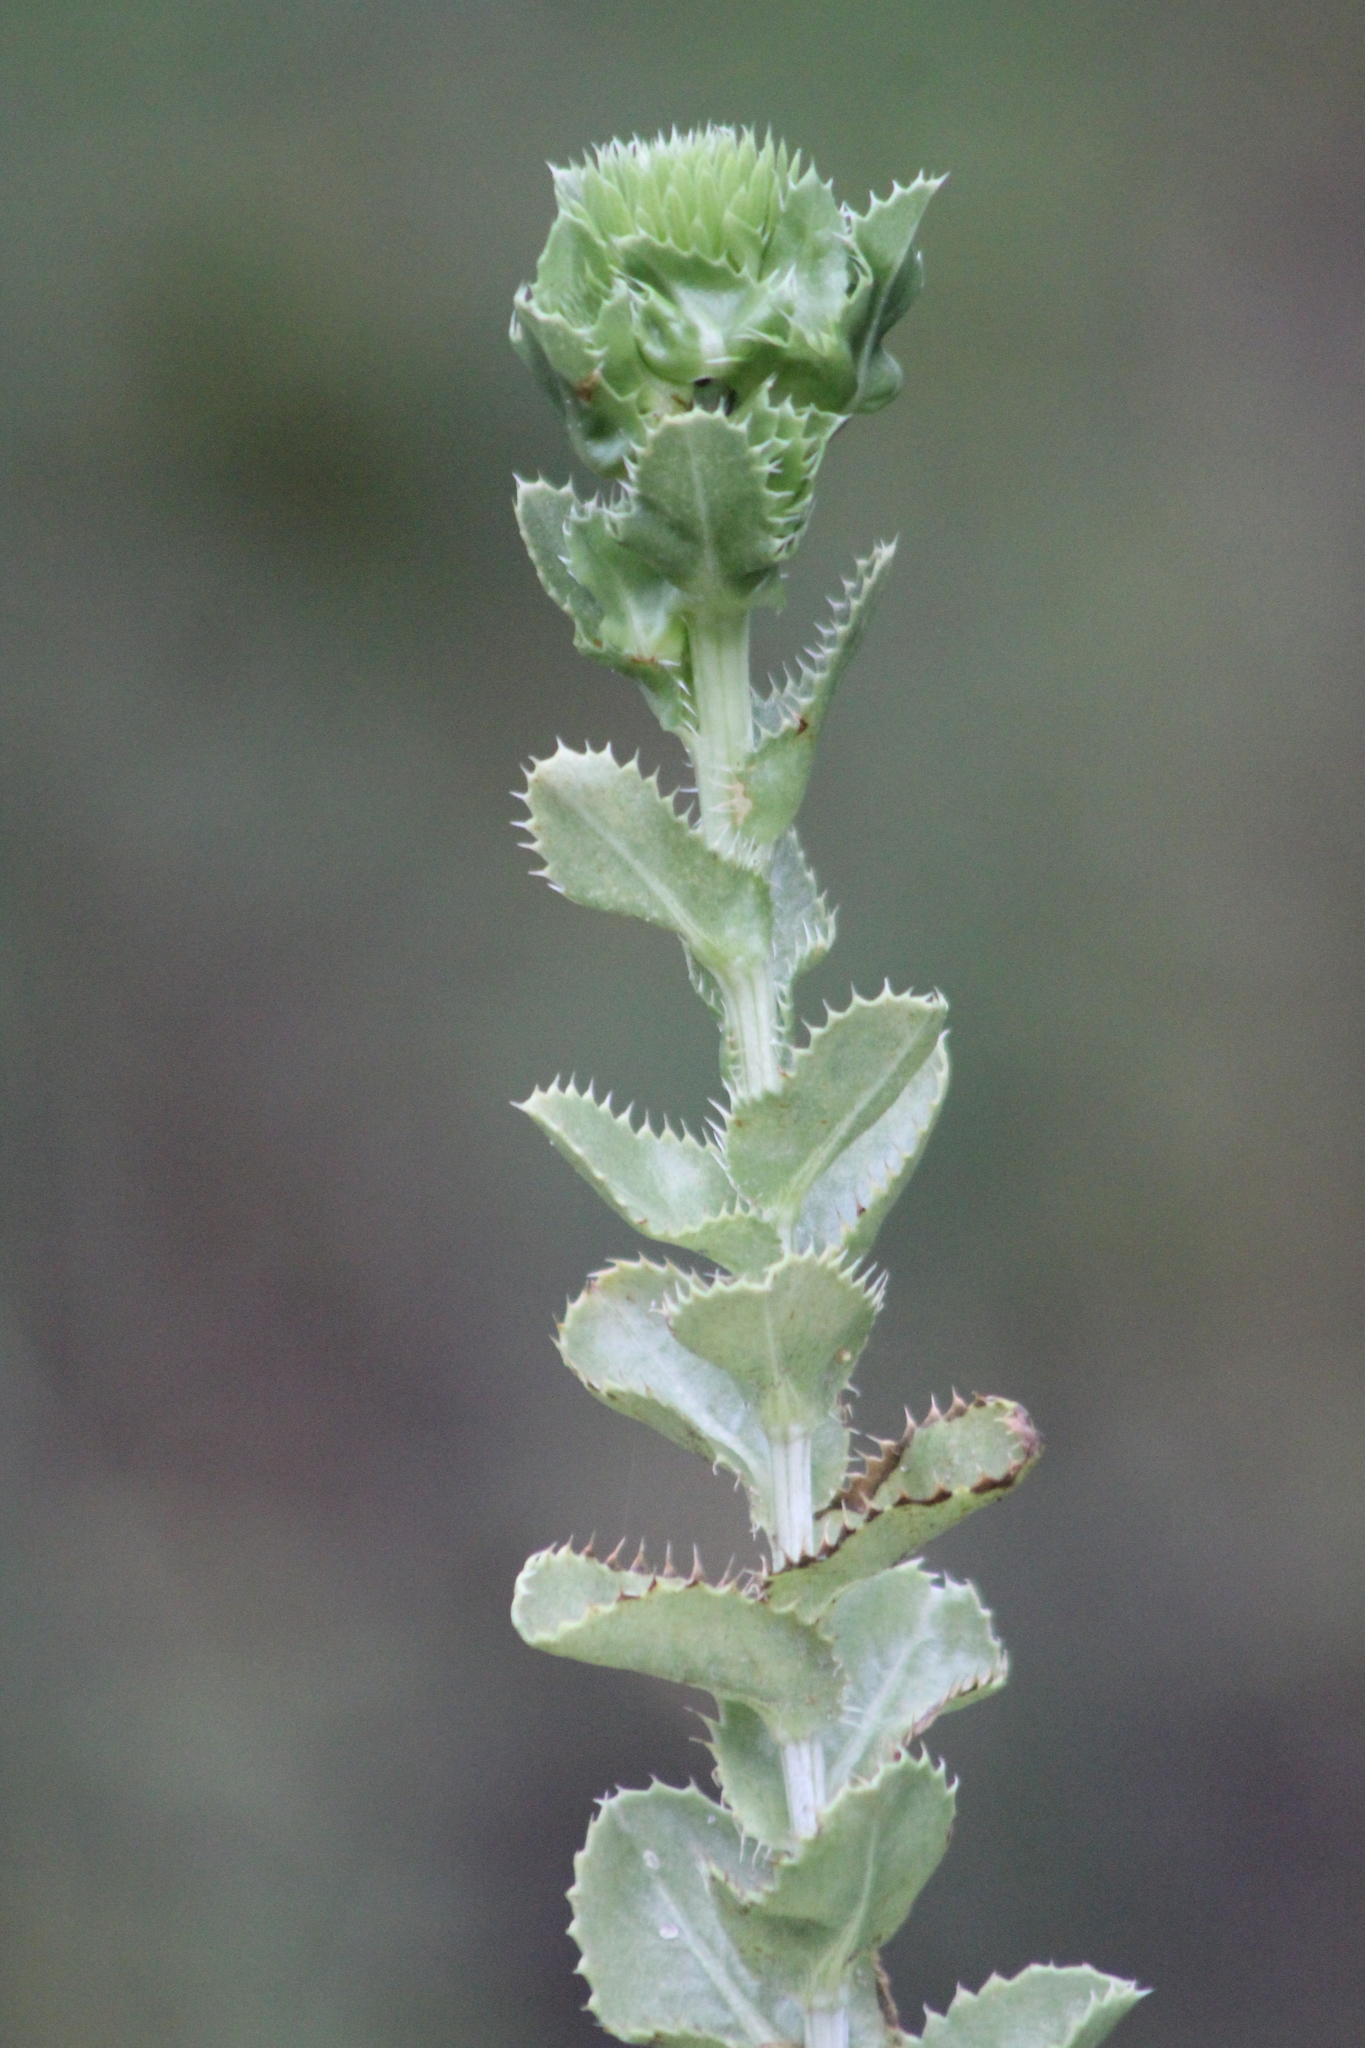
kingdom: Plantae
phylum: Tracheophyta
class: Magnoliopsida
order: Asterales
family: Asteraceae
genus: Grindelia
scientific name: Grindelia ciliata
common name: Goldenweed
